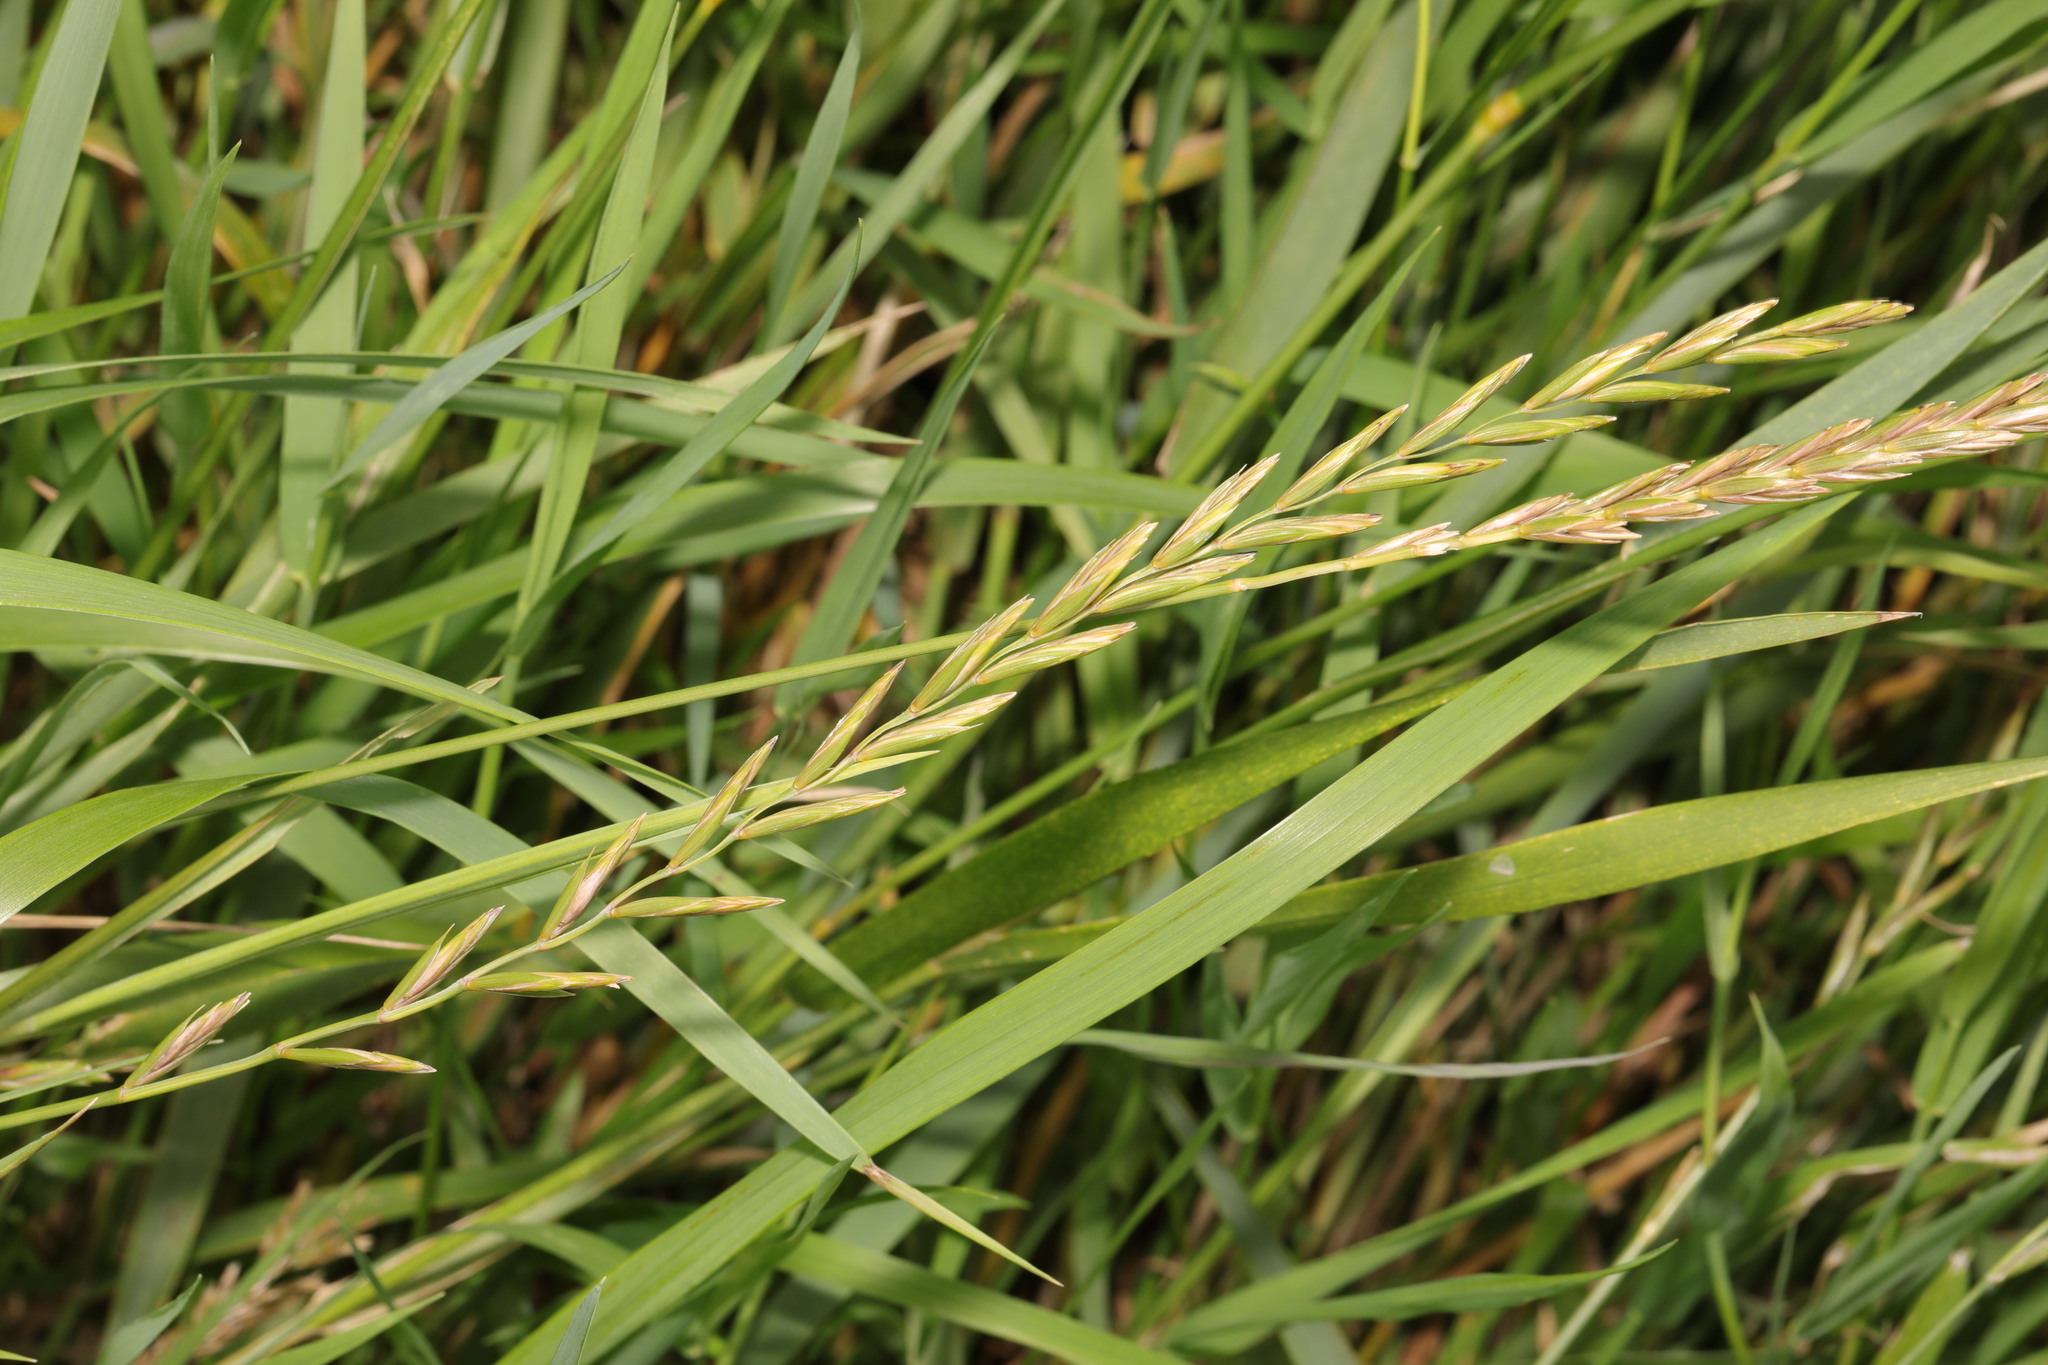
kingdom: Plantae
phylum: Tracheophyta
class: Liliopsida
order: Poales
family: Poaceae
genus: Elymus
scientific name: Elymus repens
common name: Quackgrass
